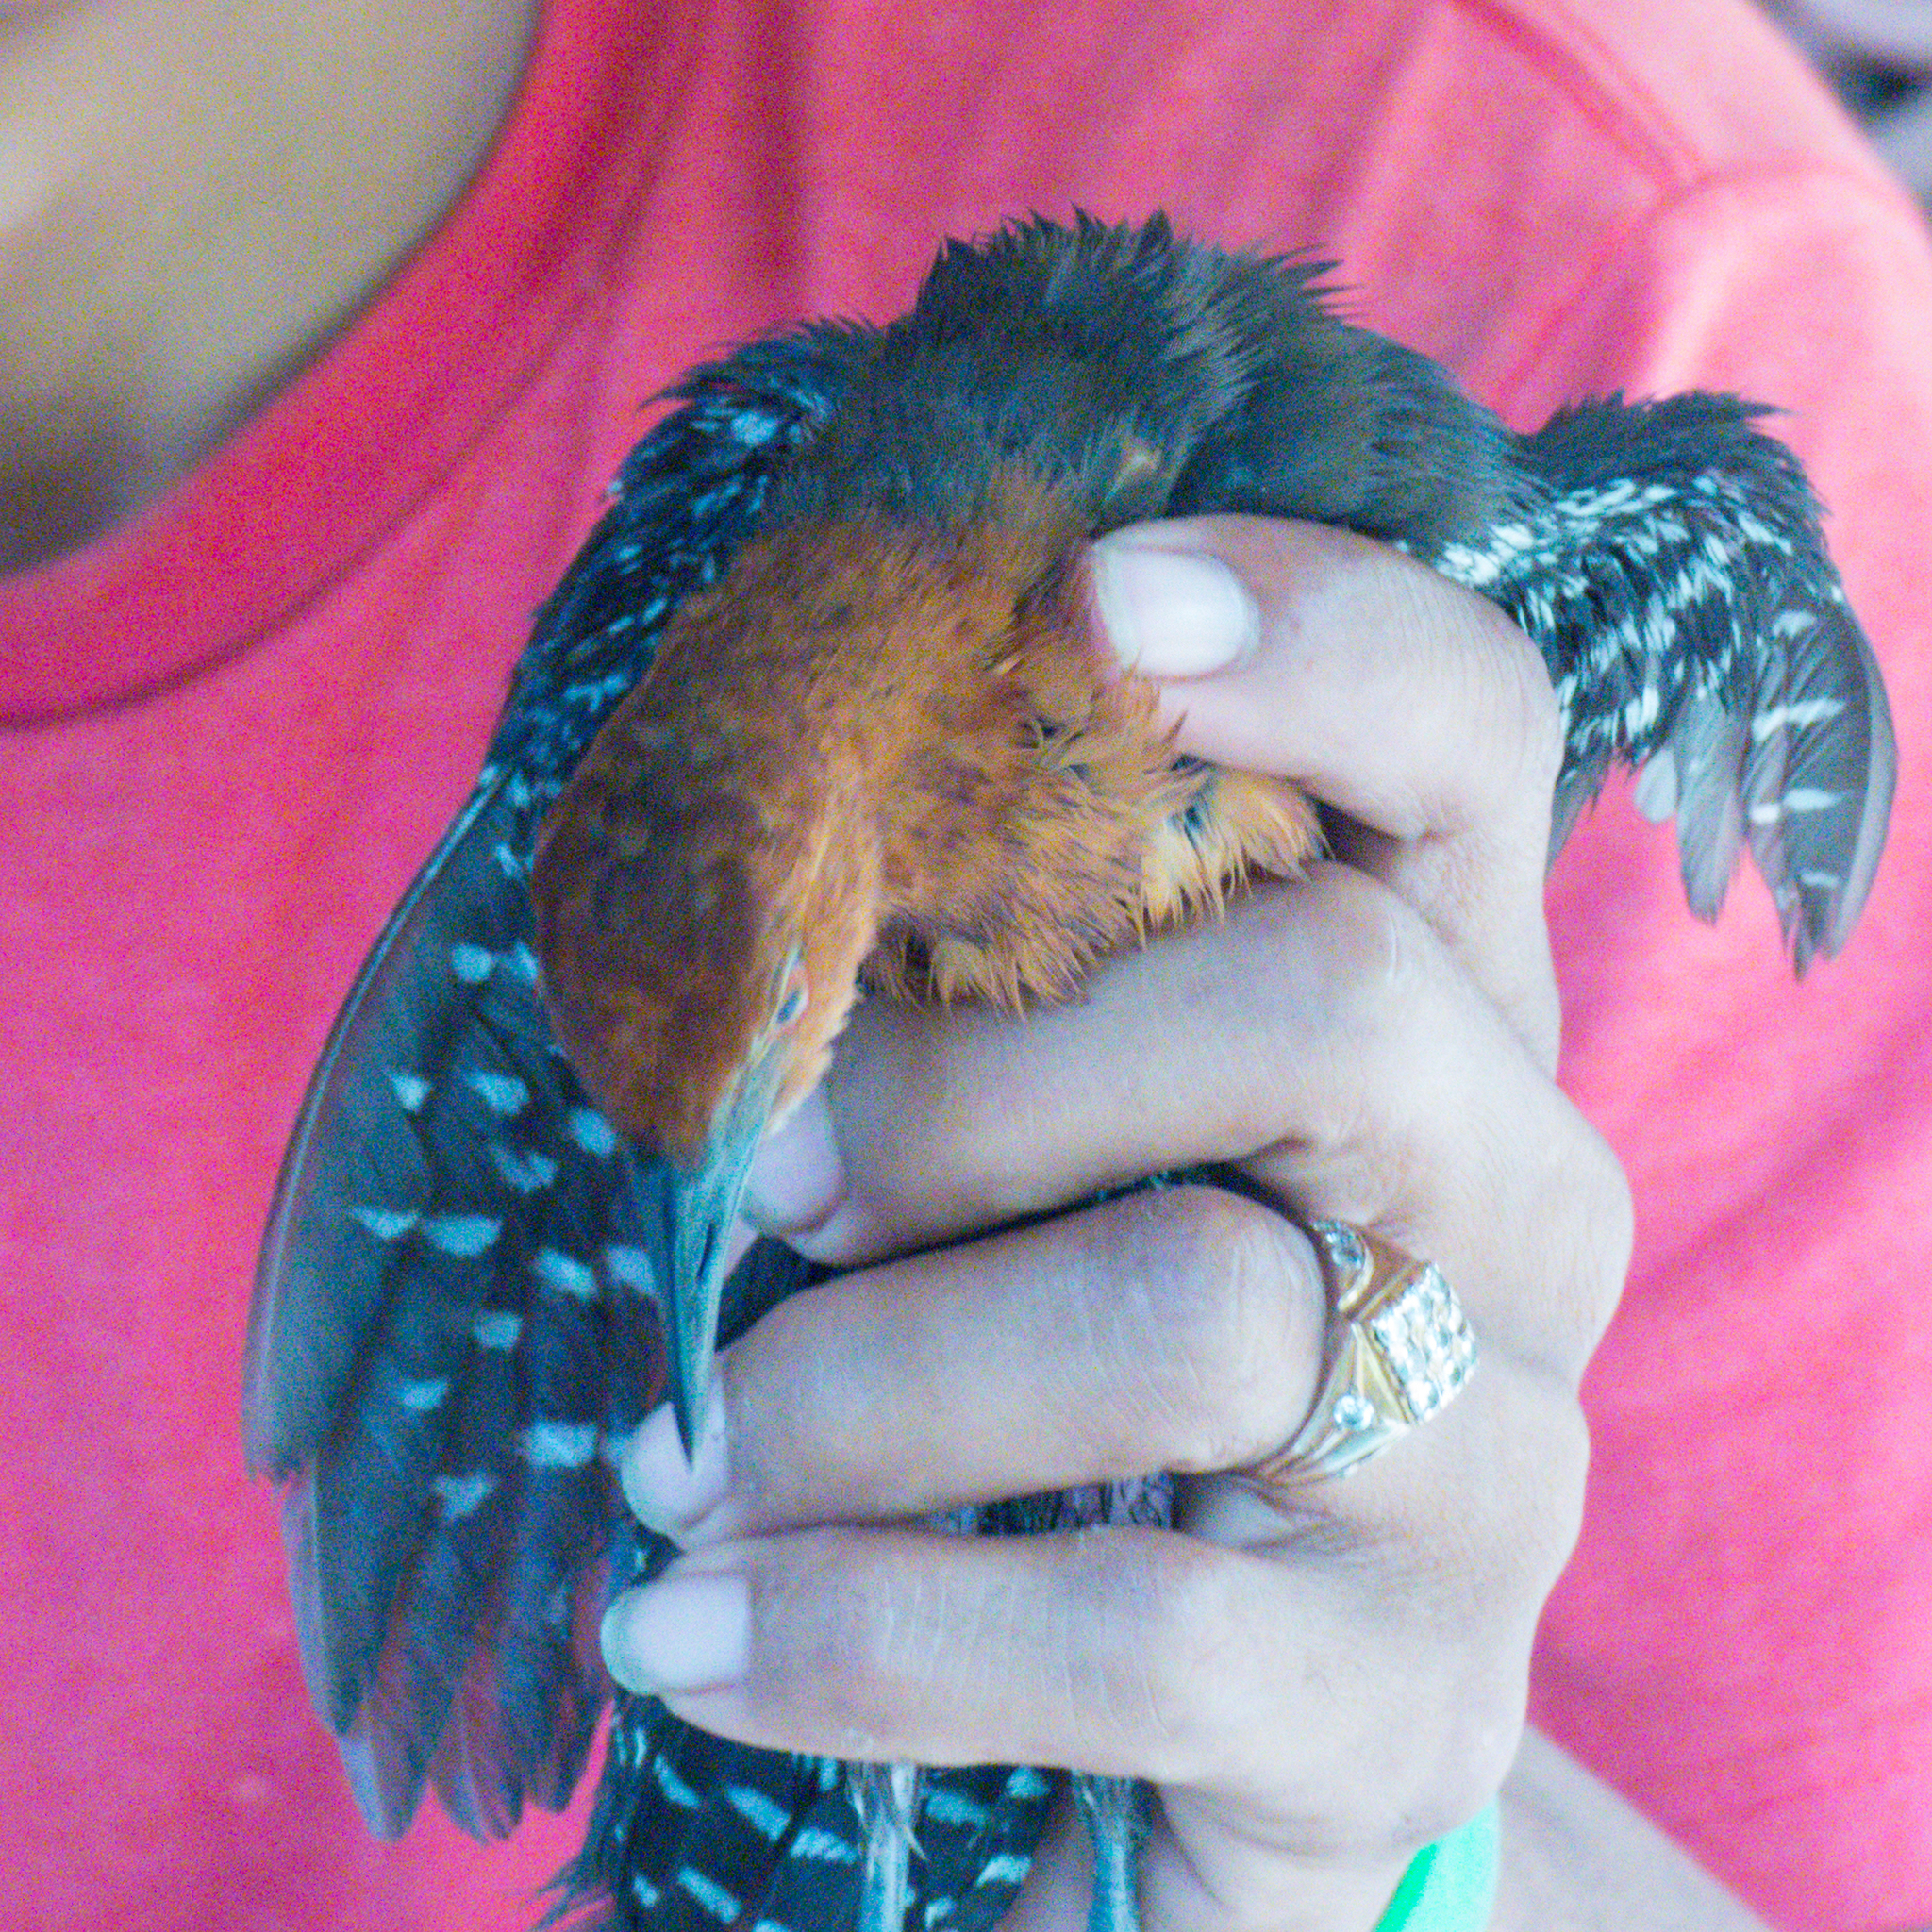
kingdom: Animalia
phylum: Chordata
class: Aves
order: Gruiformes
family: Rallidae
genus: Rallina
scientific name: Rallina eurizonoides
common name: Slaty-legged crake
